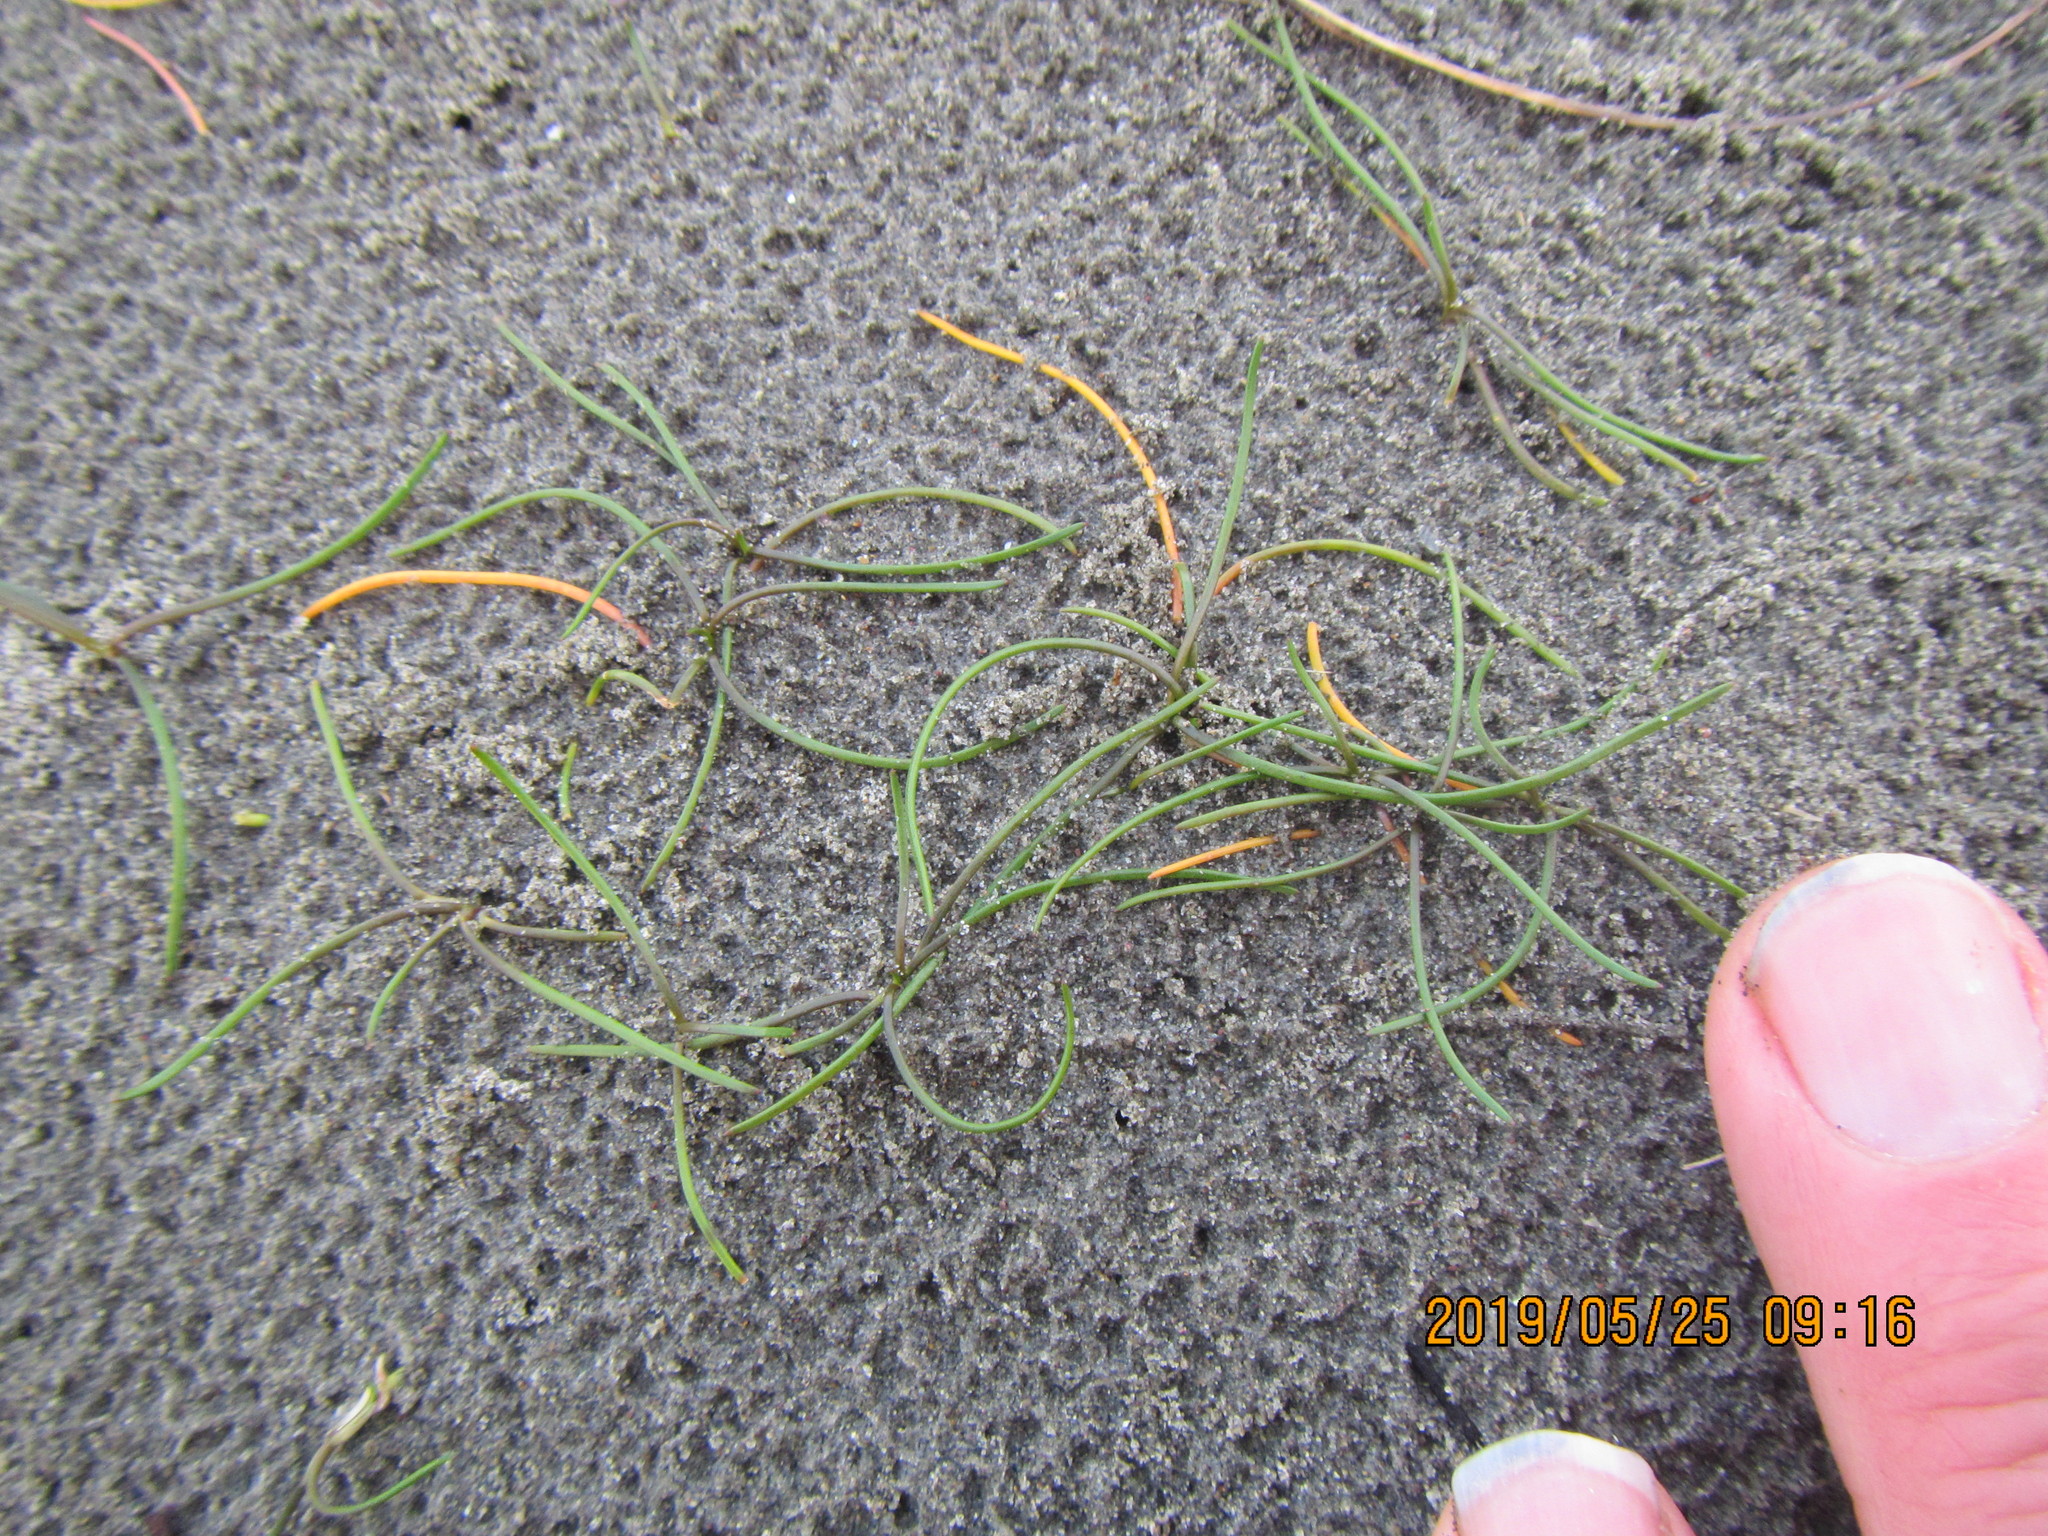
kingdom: Plantae
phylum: Tracheophyta
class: Liliopsida
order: Alismatales
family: Juncaginaceae
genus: Triglochin
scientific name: Triglochin striata
